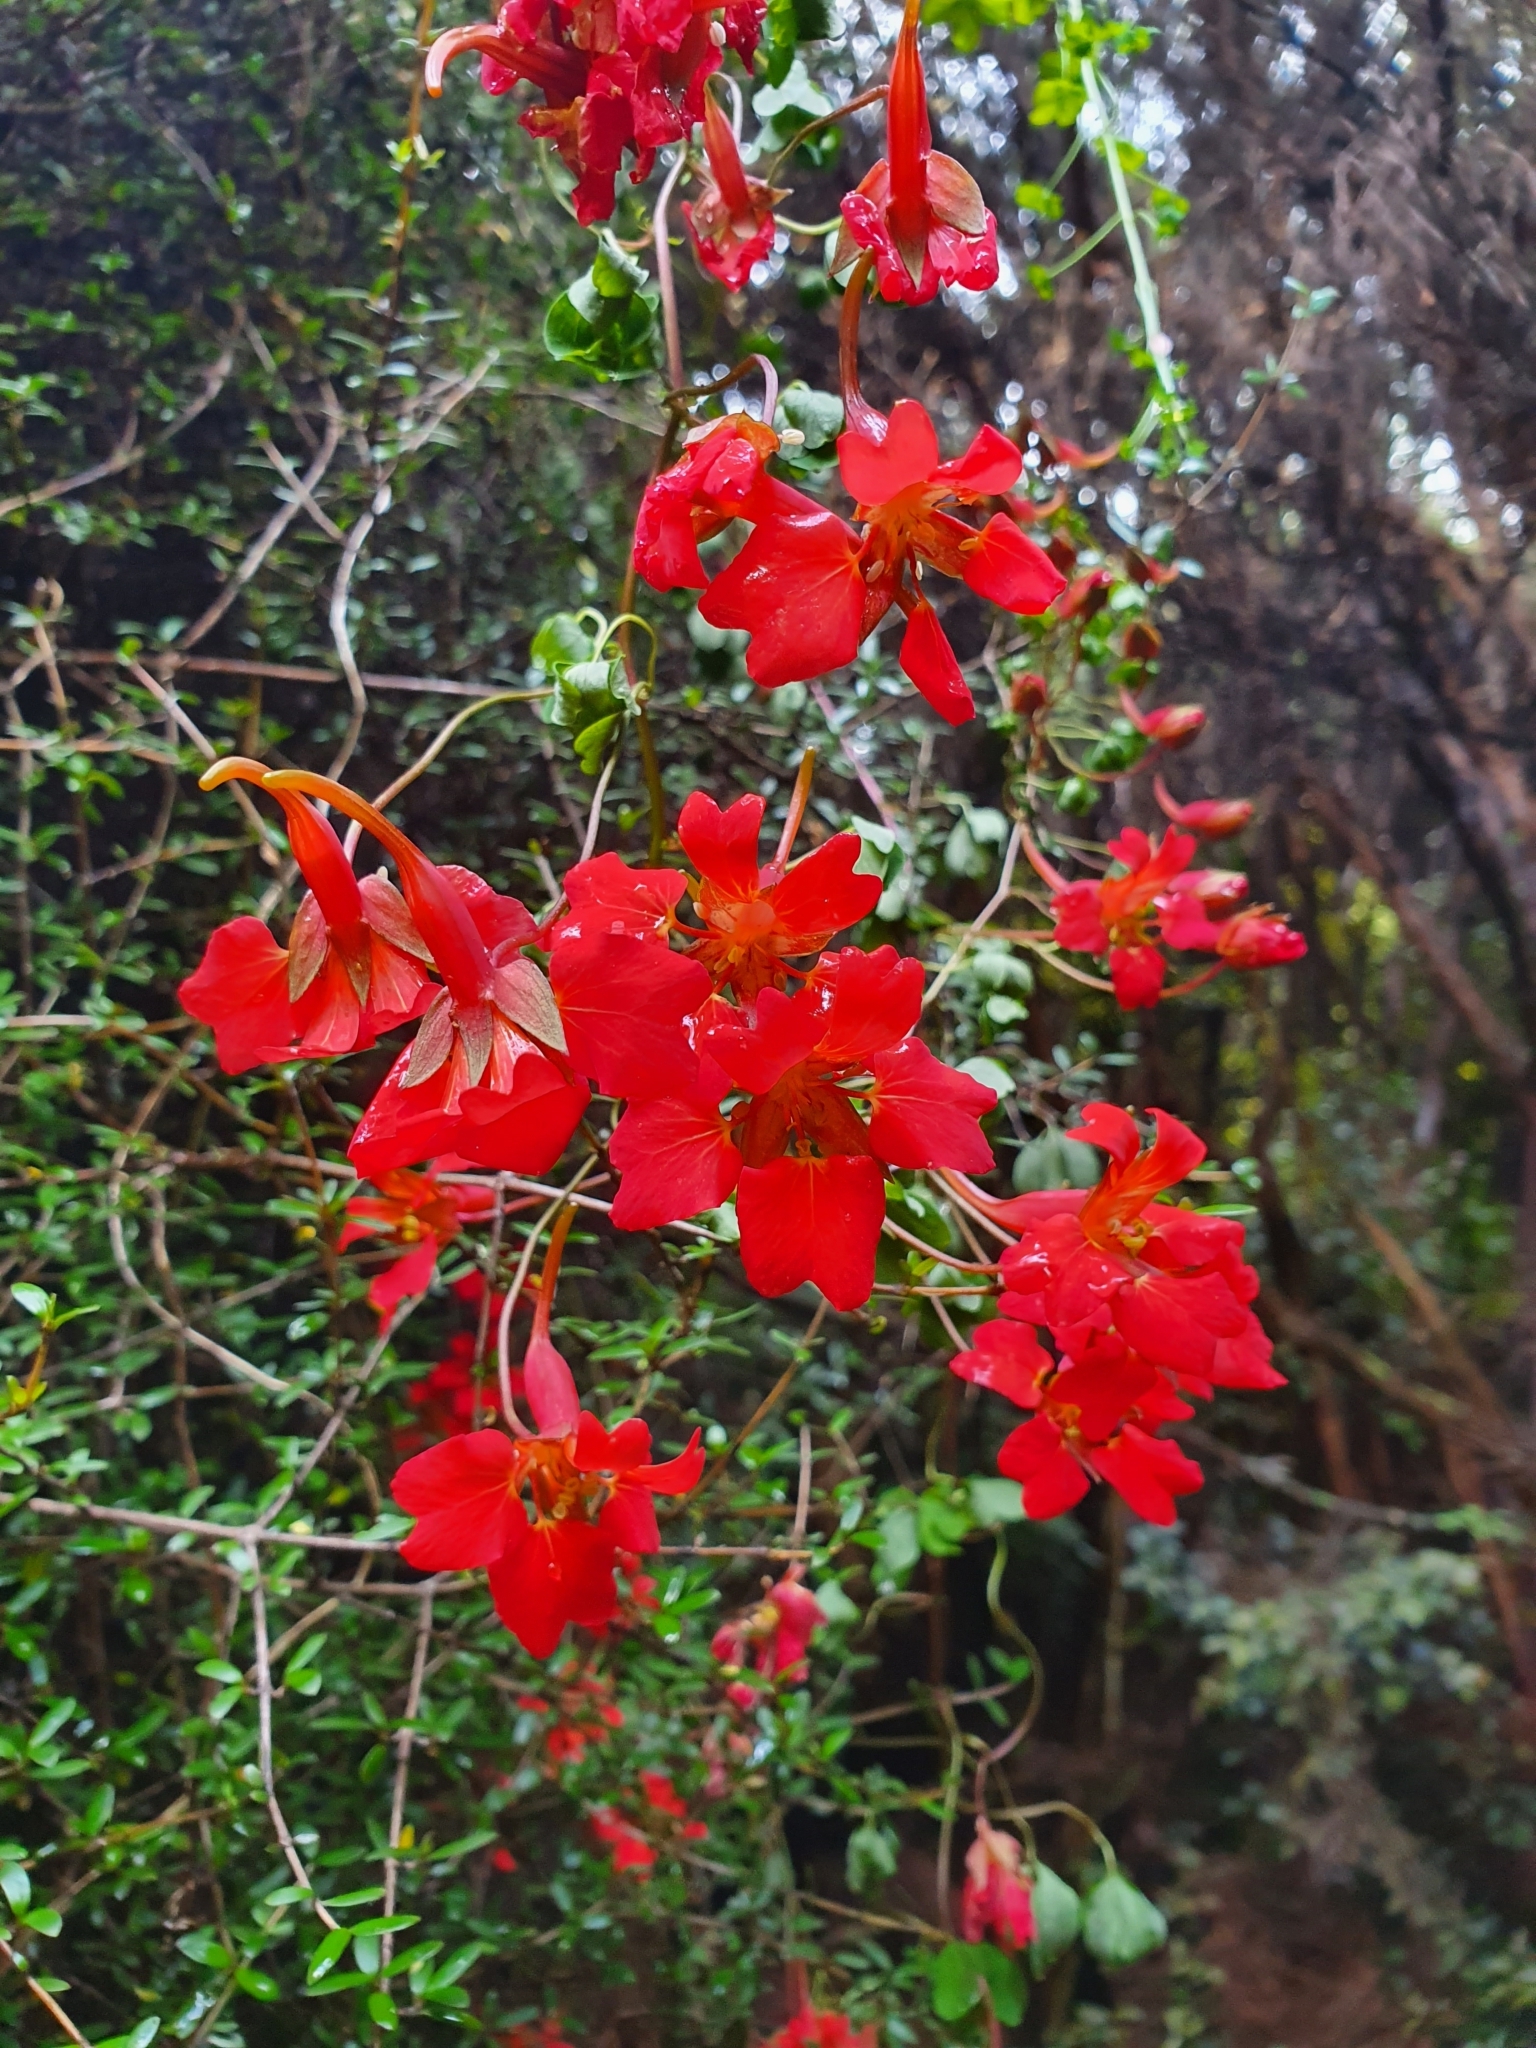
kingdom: Plantae
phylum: Tracheophyta
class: Magnoliopsida
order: Brassicales
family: Tropaeolaceae
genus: Tropaeolum
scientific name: Tropaeolum speciosum
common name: Flame nasturtium
